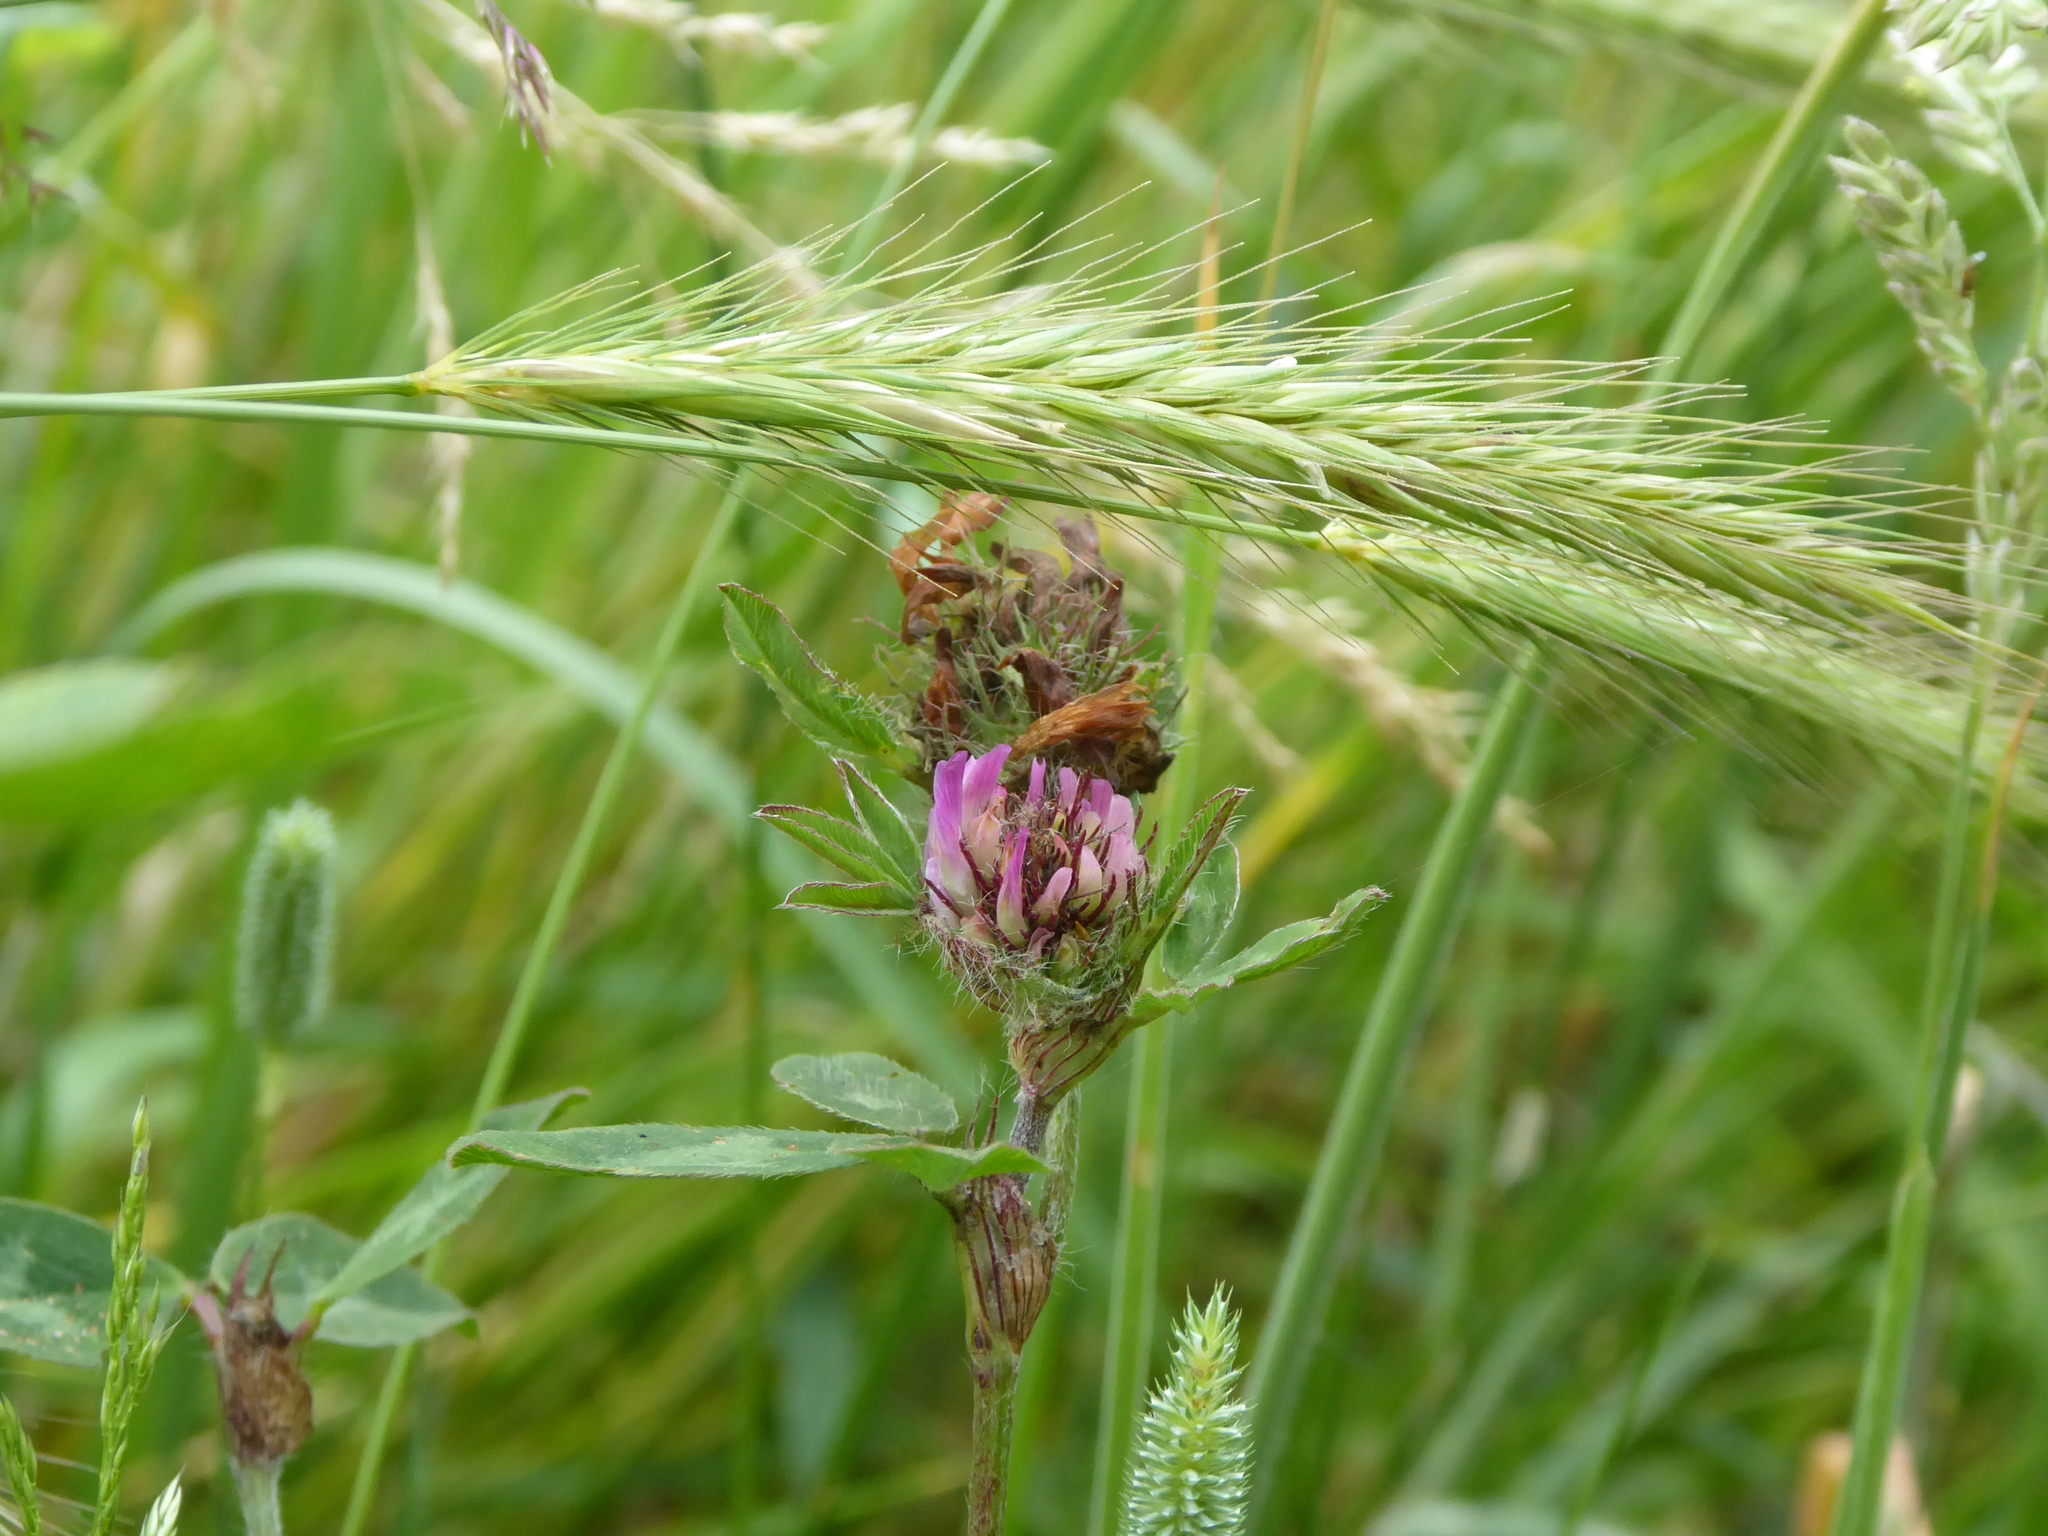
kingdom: Plantae
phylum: Tracheophyta
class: Magnoliopsida
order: Fabales
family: Fabaceae
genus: Trifolium
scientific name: Trifolium pratense
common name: Red clover
